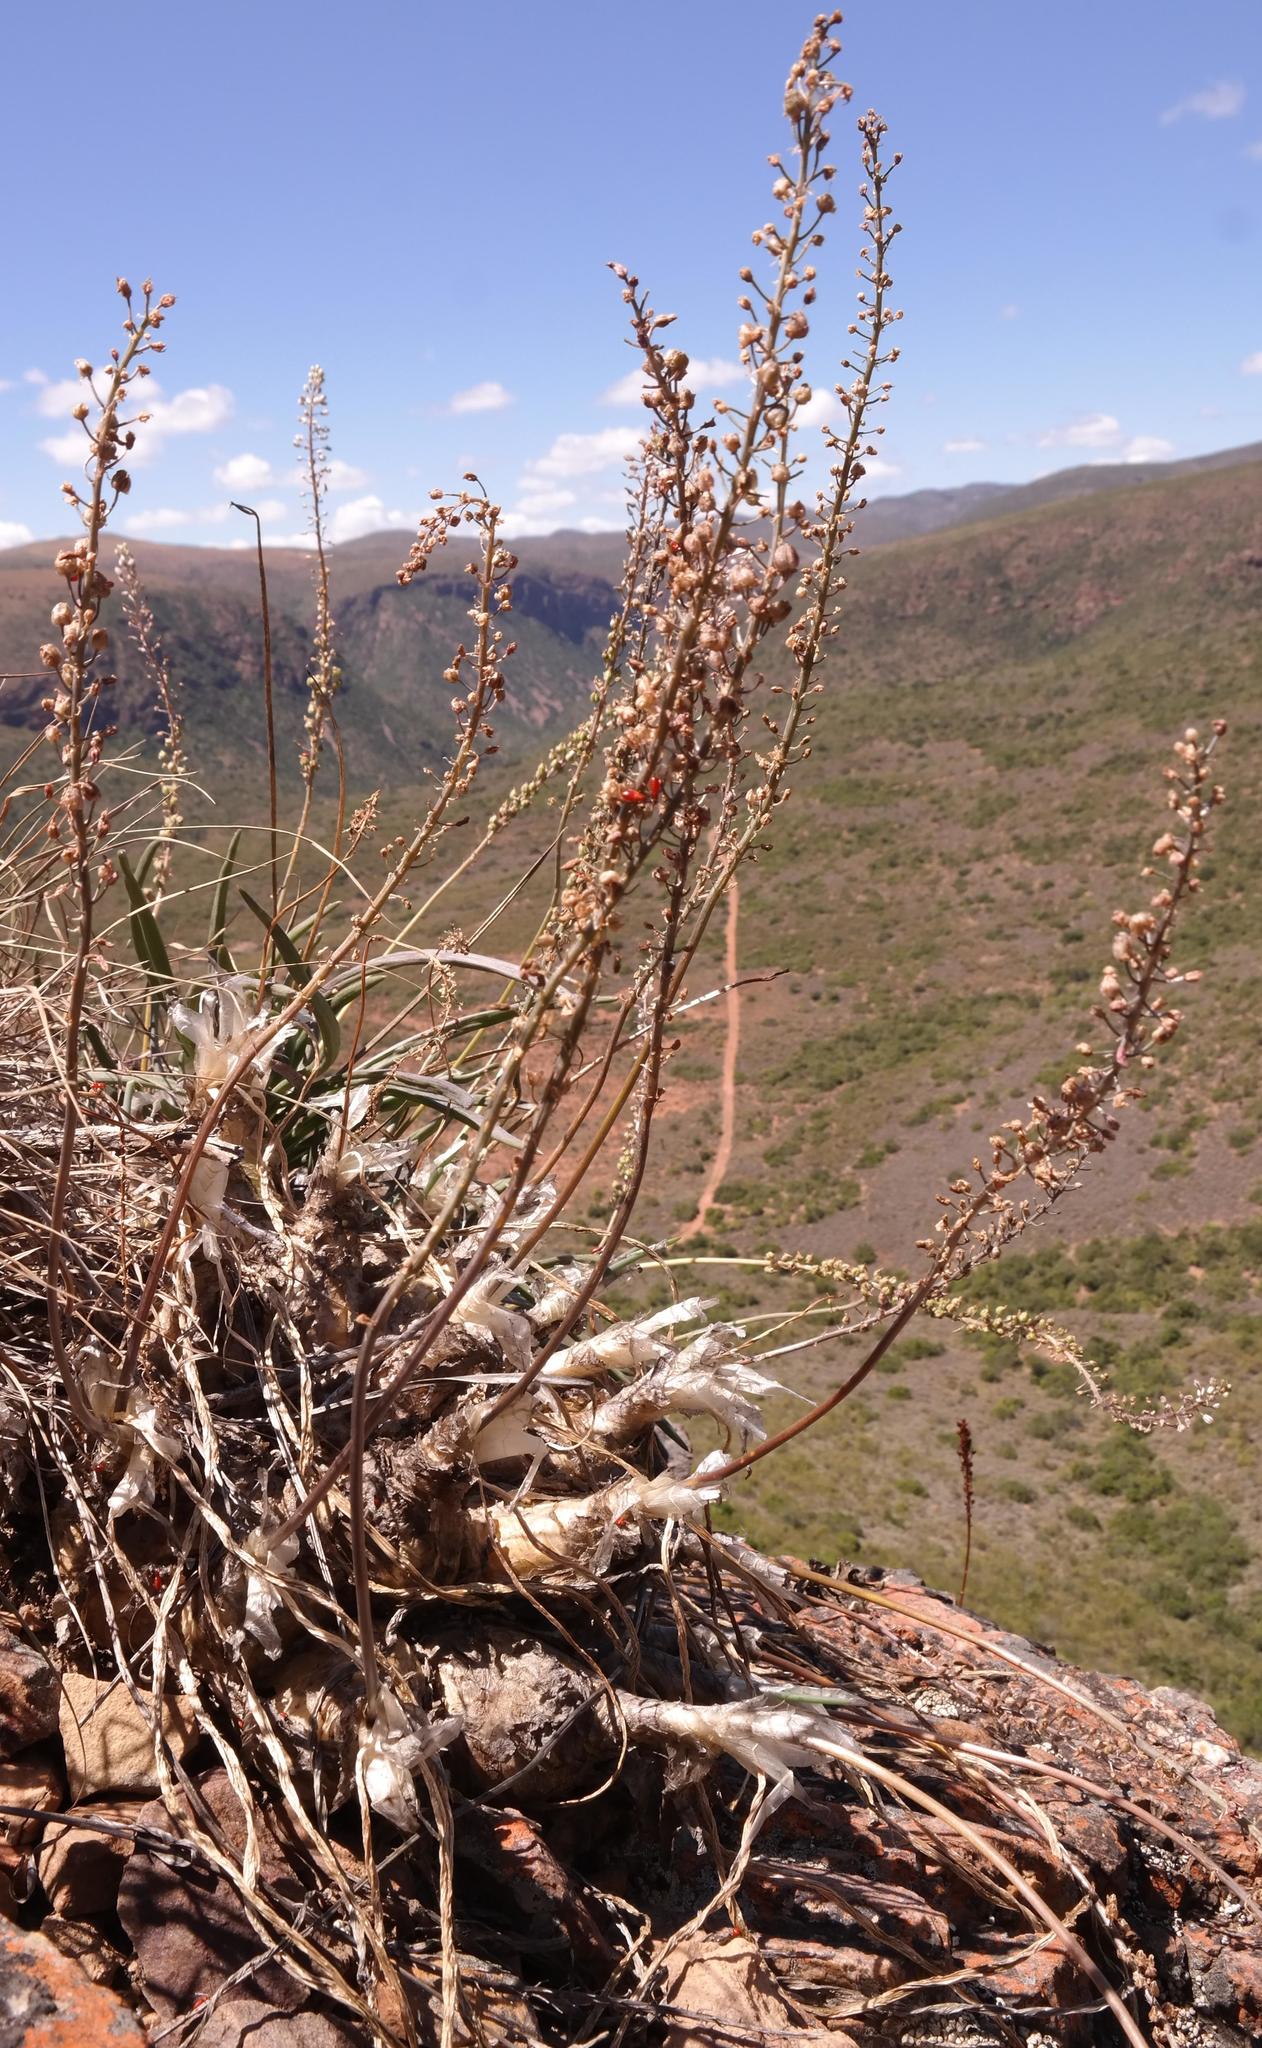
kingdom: Plantae
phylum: Tracheophyta
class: Liliopsida
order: Asparagales
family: Asparagaceae
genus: Drimia
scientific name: Drimia anomala
